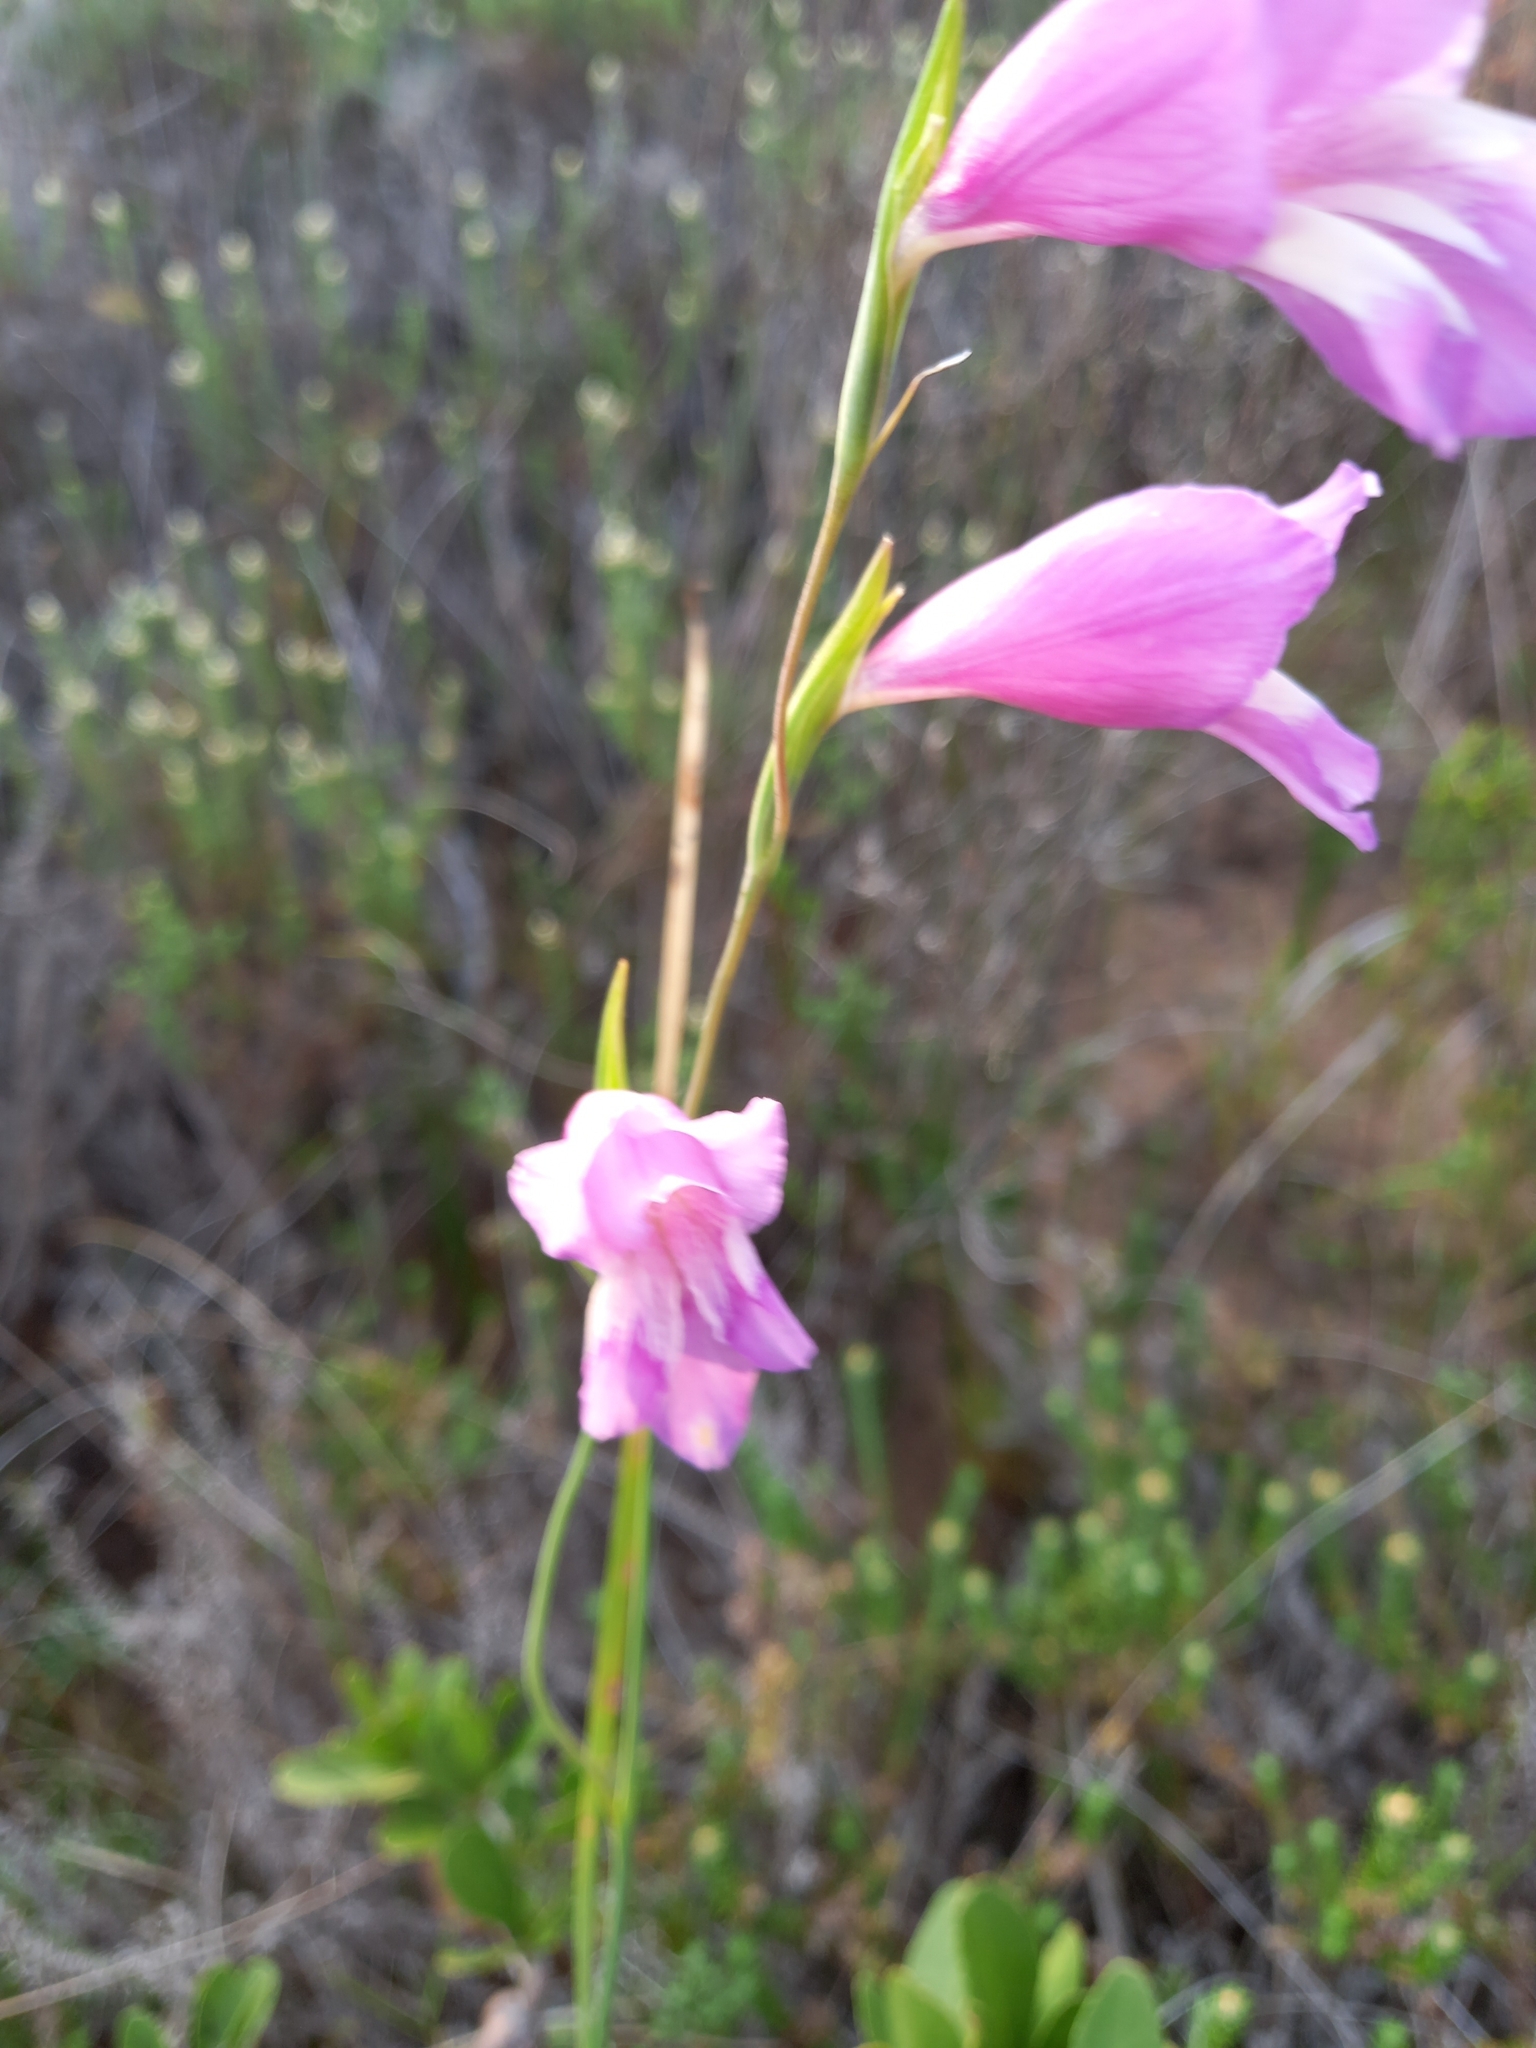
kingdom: Plantae
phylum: Tracheophyta
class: Liliopsida
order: Asparagales
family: Iridaceae
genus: Gladiolus
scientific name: Gladiolus carinatus
